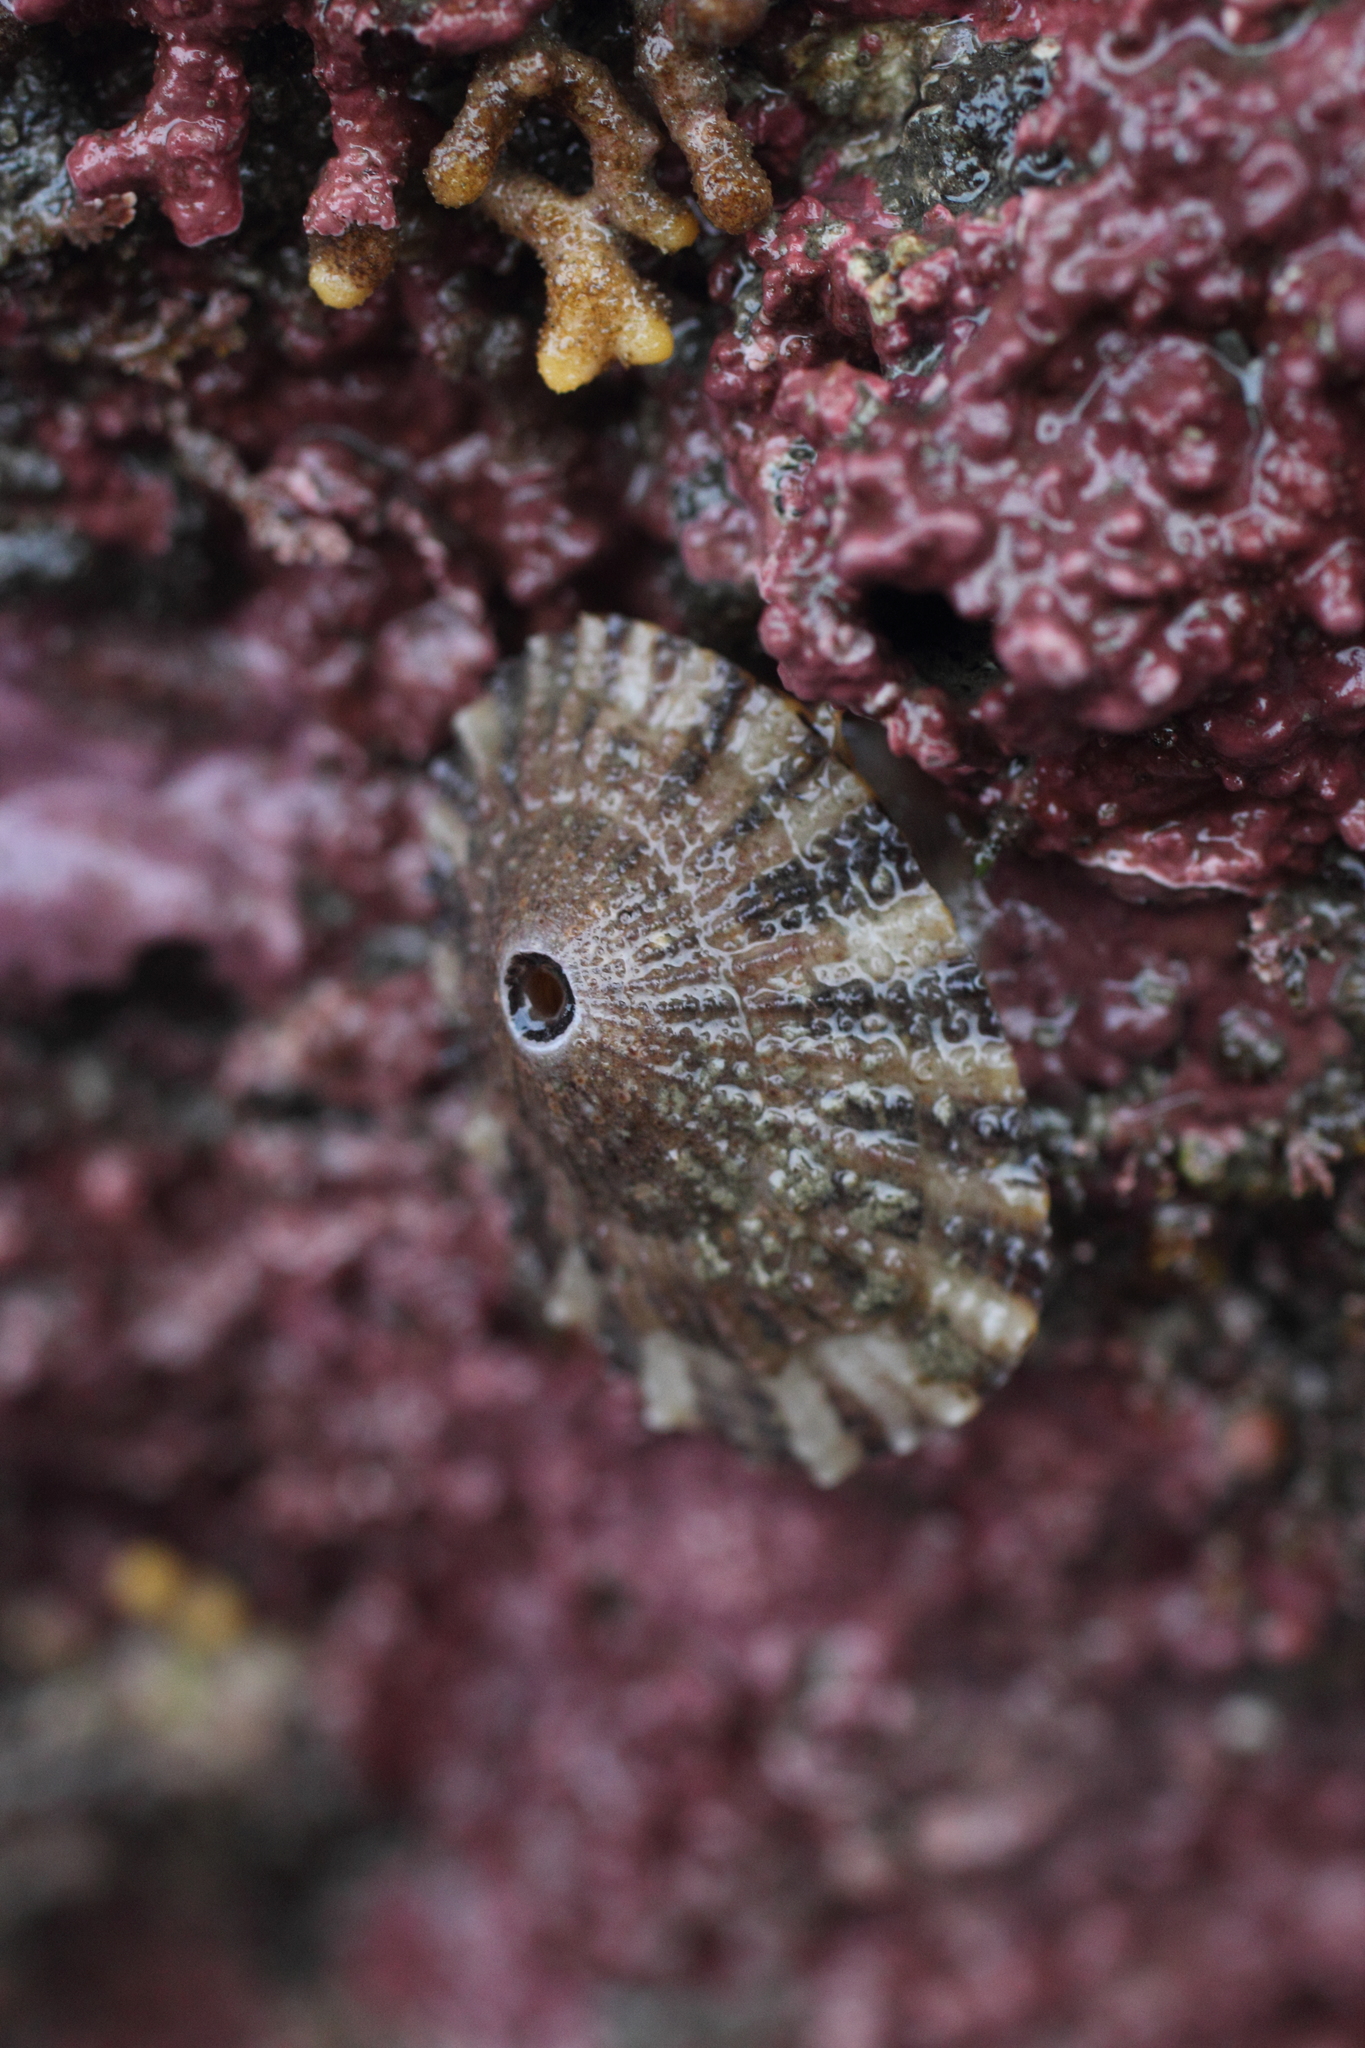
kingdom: Animalia
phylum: Mollusca
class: Gastropoda
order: Lepetellida
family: Fissurellidae
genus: Diodora
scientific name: Diodora aspera
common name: Rough keyhole limpet
